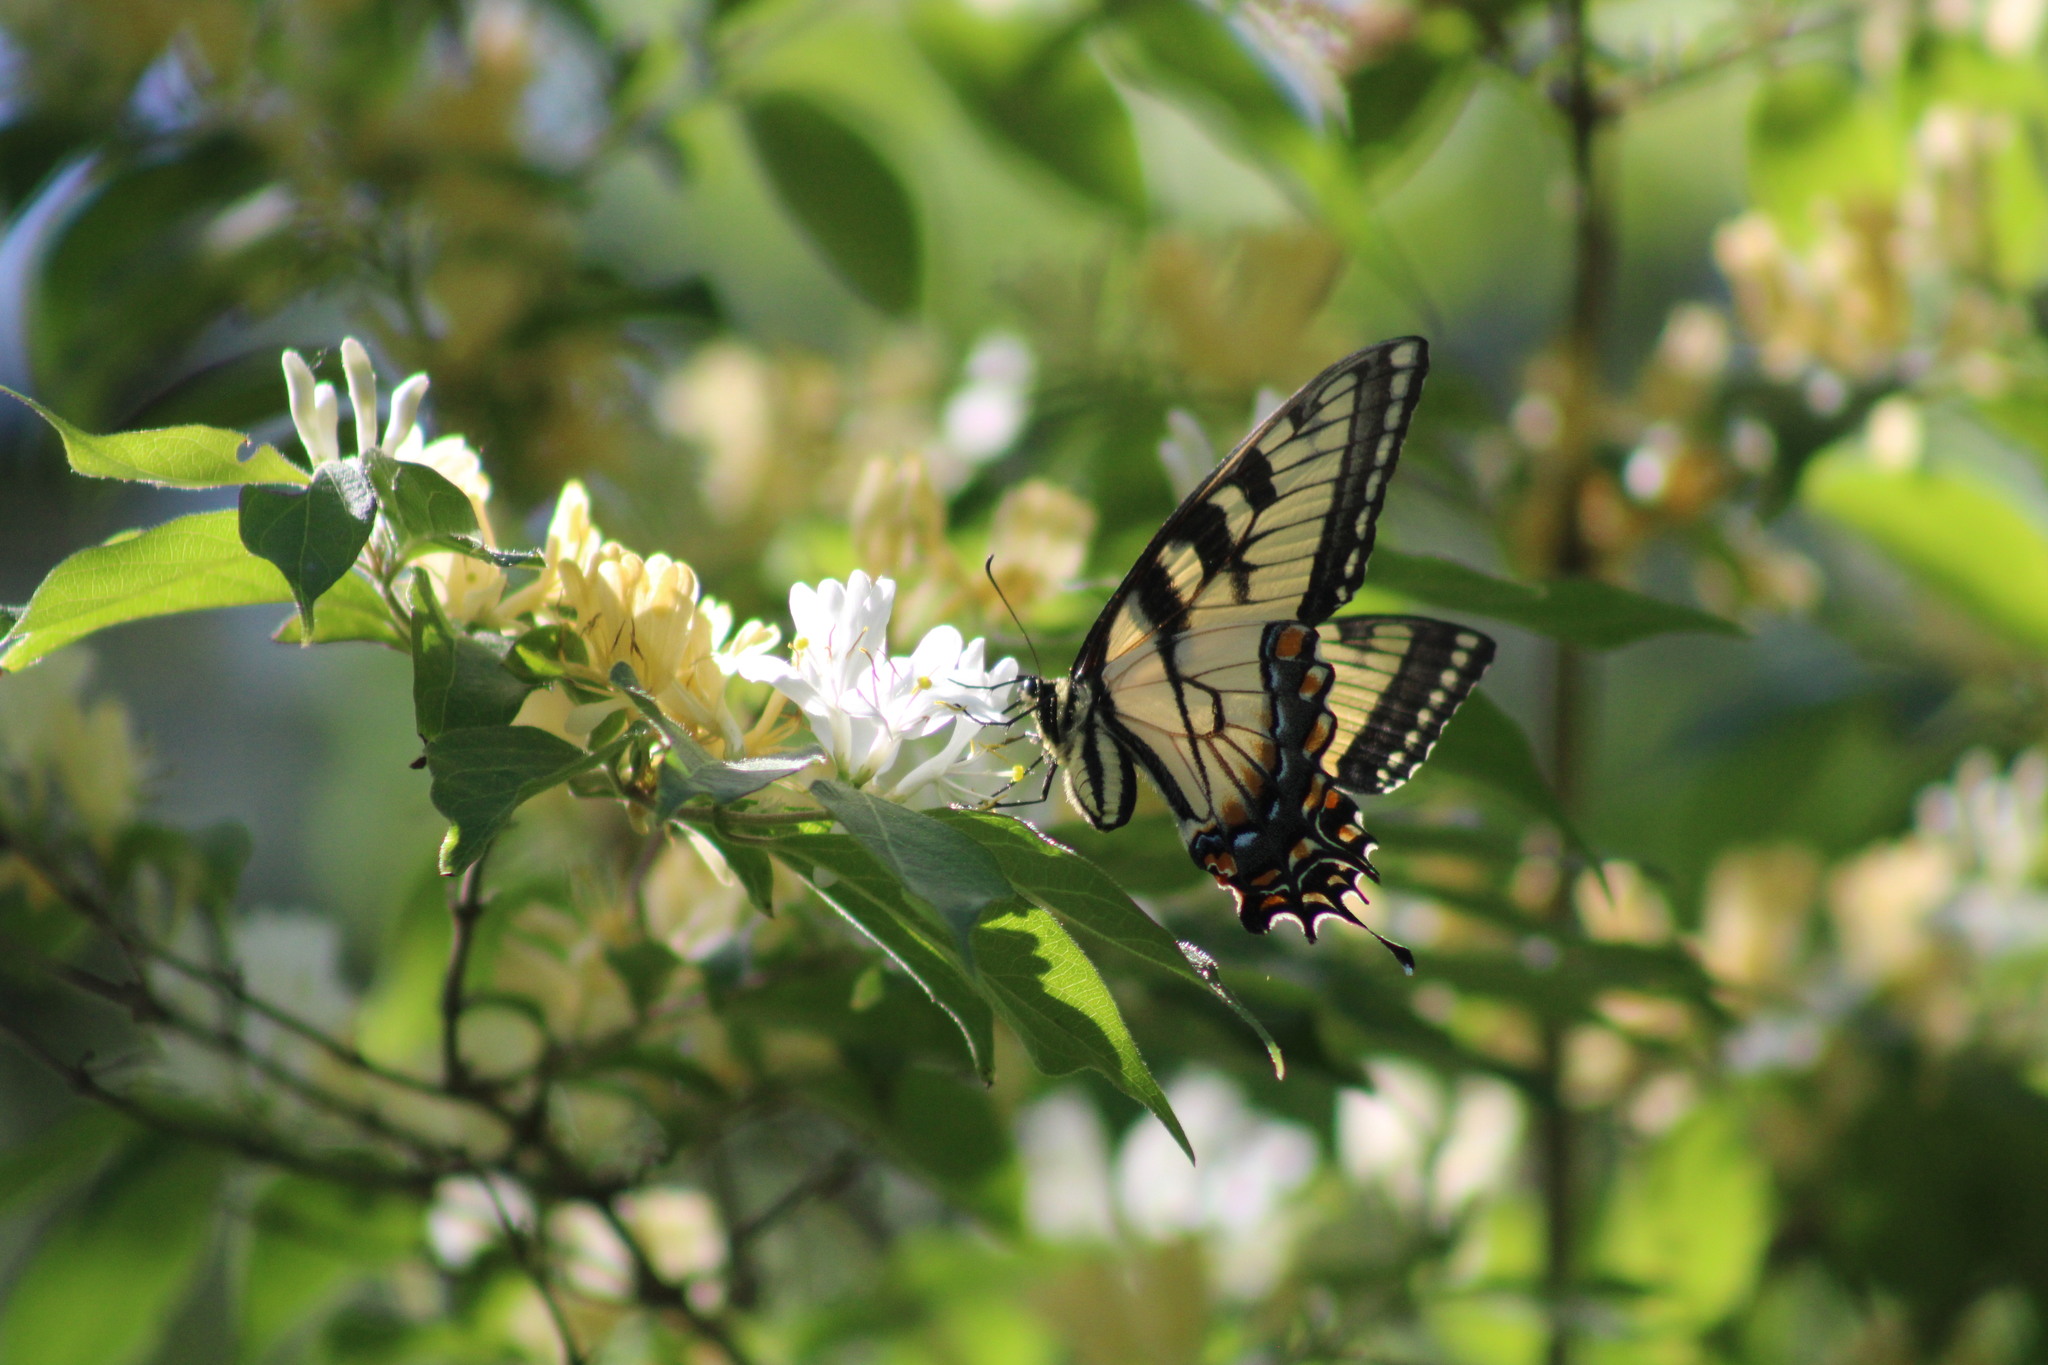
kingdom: Animalia
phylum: Arthropoda
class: Insecta
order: Lepidoptera
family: Papilionidae
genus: Papilio
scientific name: Papilio glaucus
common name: Tiger swallowtail
